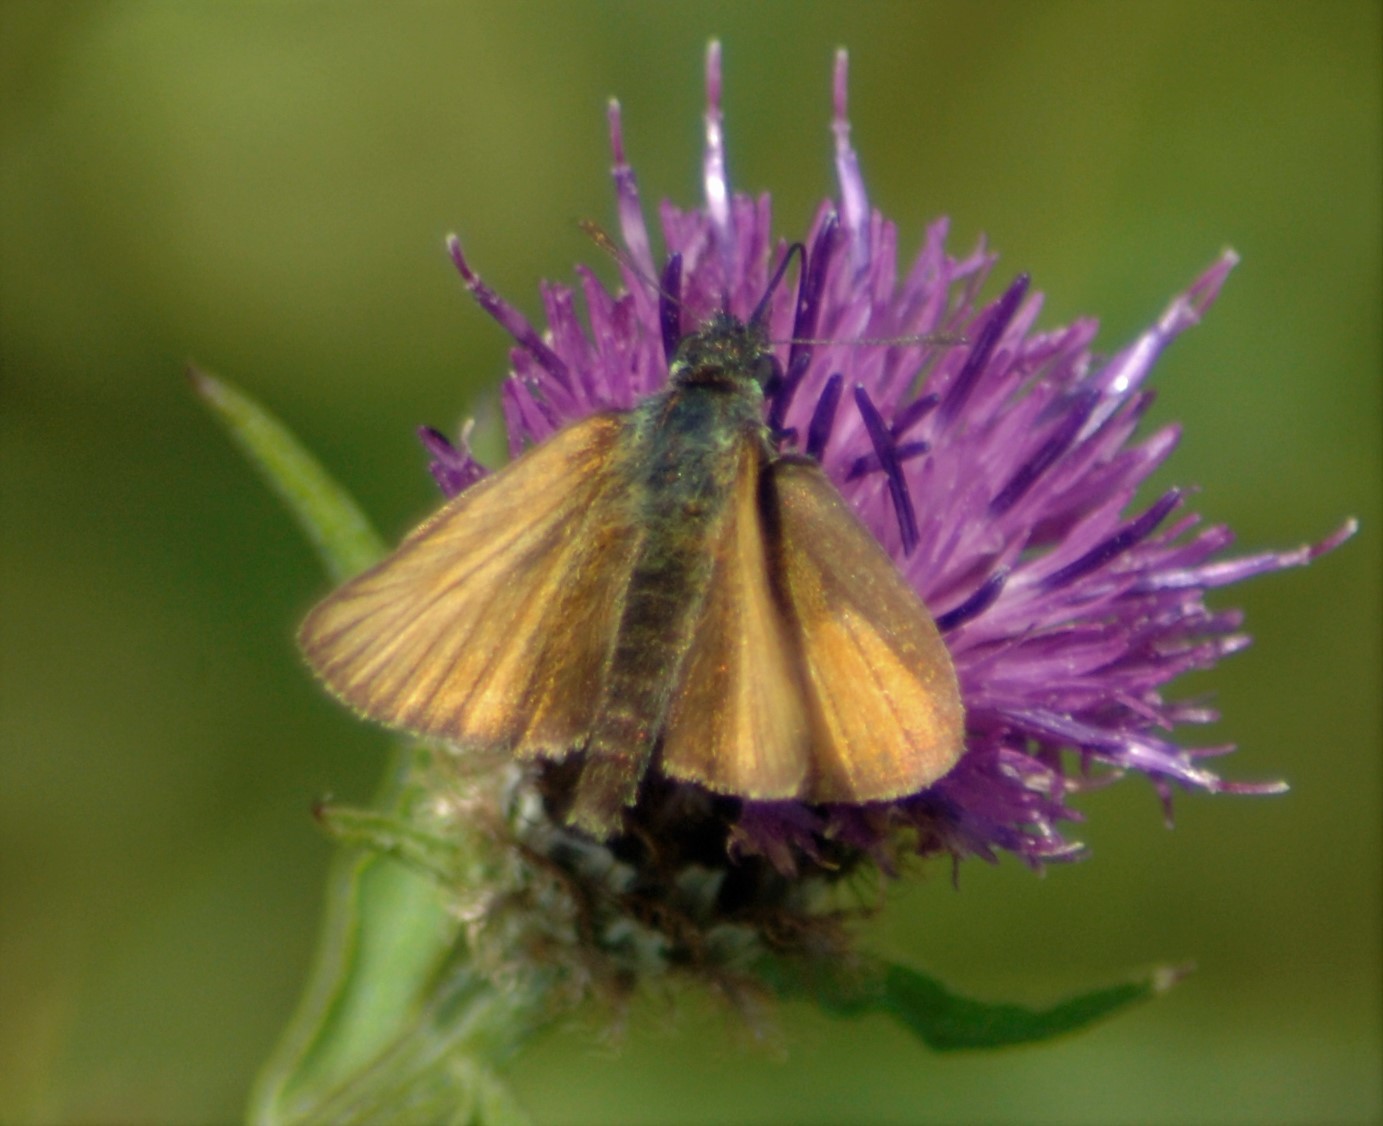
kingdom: Animalia
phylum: Arthropoda
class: Insecta
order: Lepidoptera
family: Hesperiidae
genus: Thymelicus
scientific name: Thymelicus lineola
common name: Essex skipper
